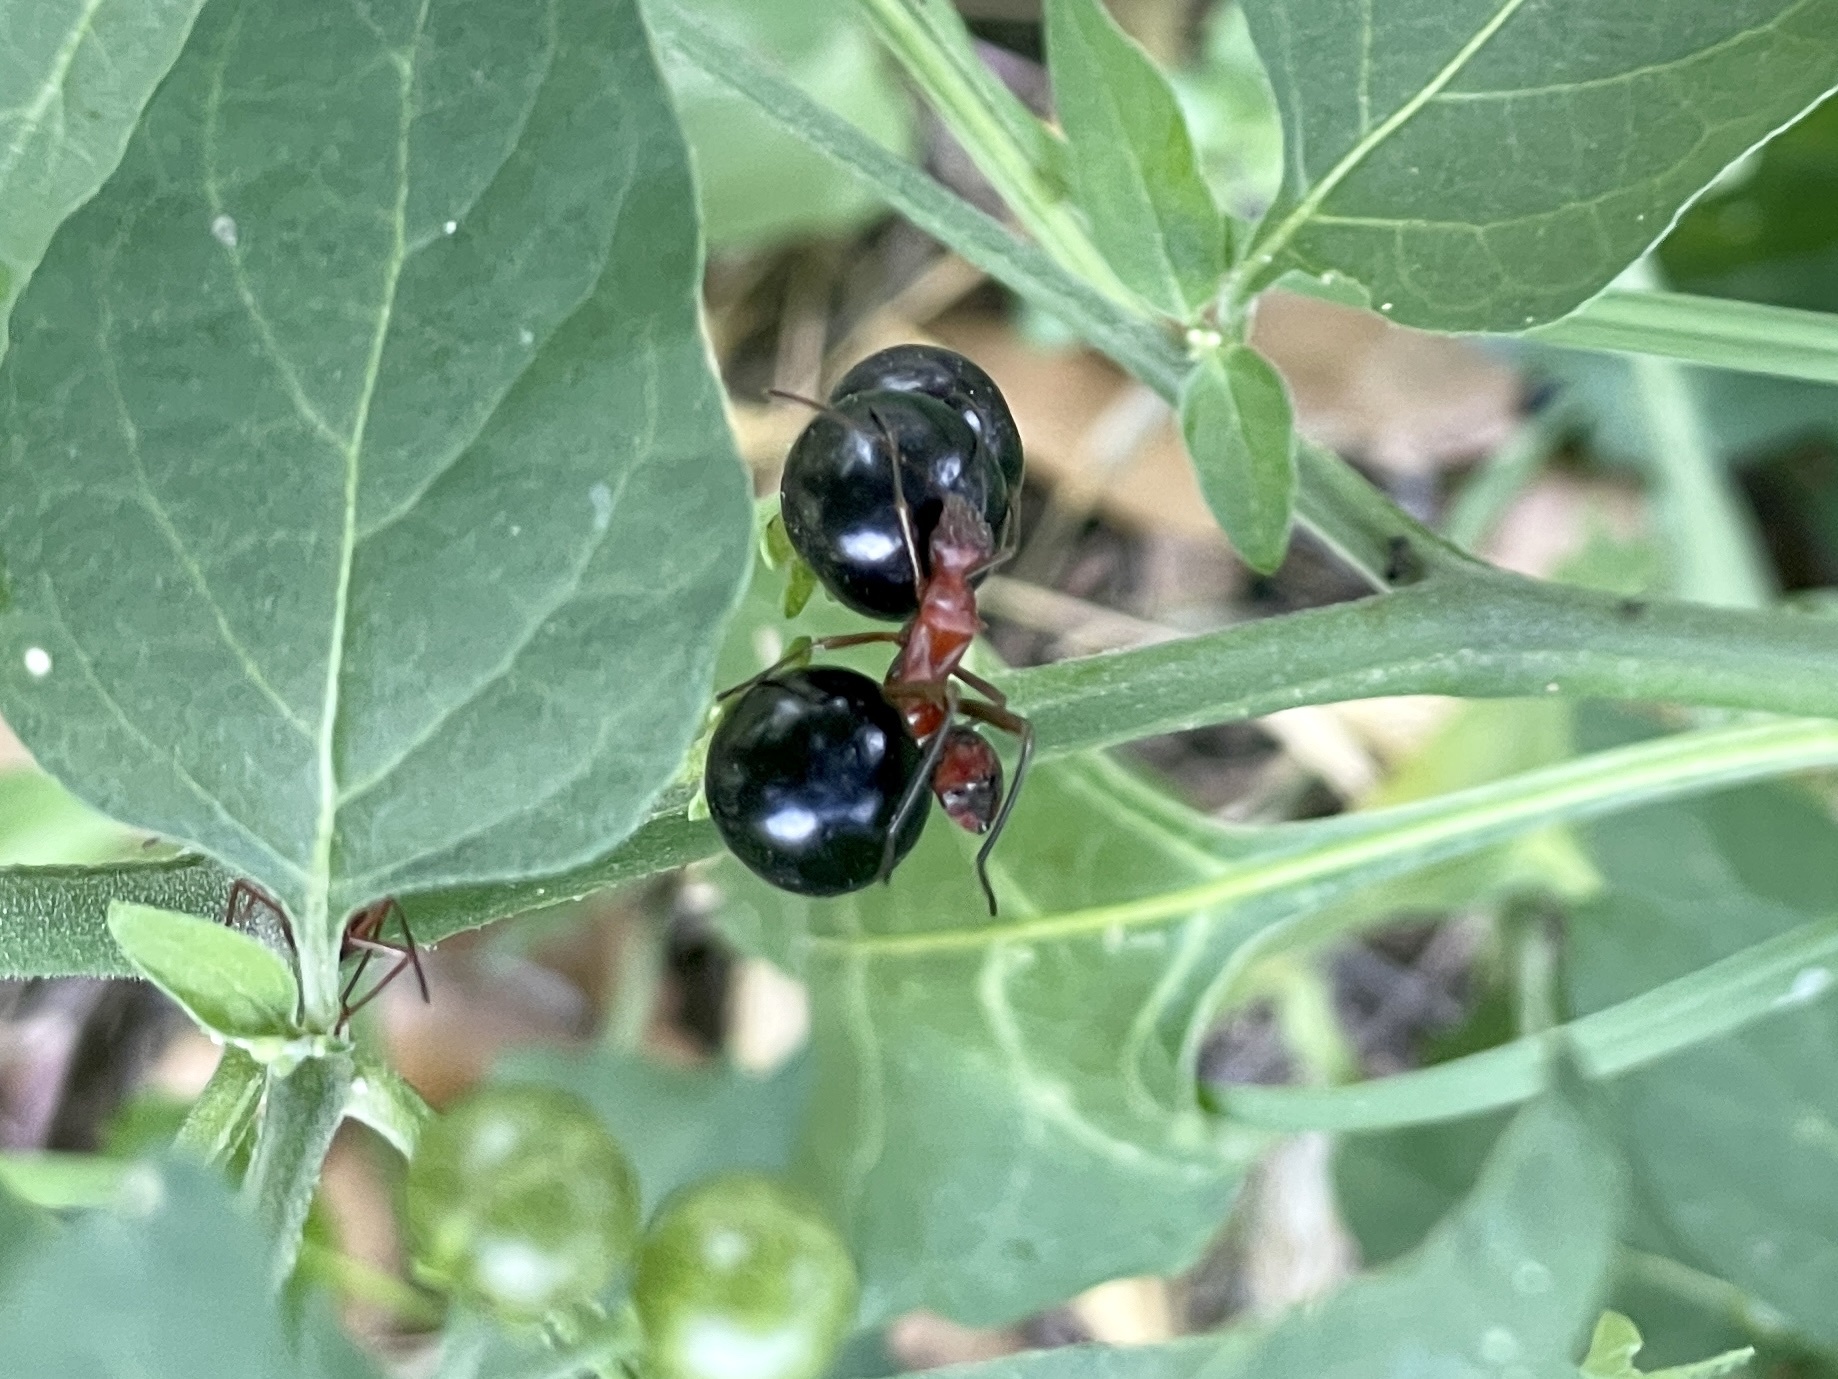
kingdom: Animalia
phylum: Arthropoda
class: Insecta
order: Hemiptera
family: Alydidae
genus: Hyalymenus
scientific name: Hyalymenus tarsatus
